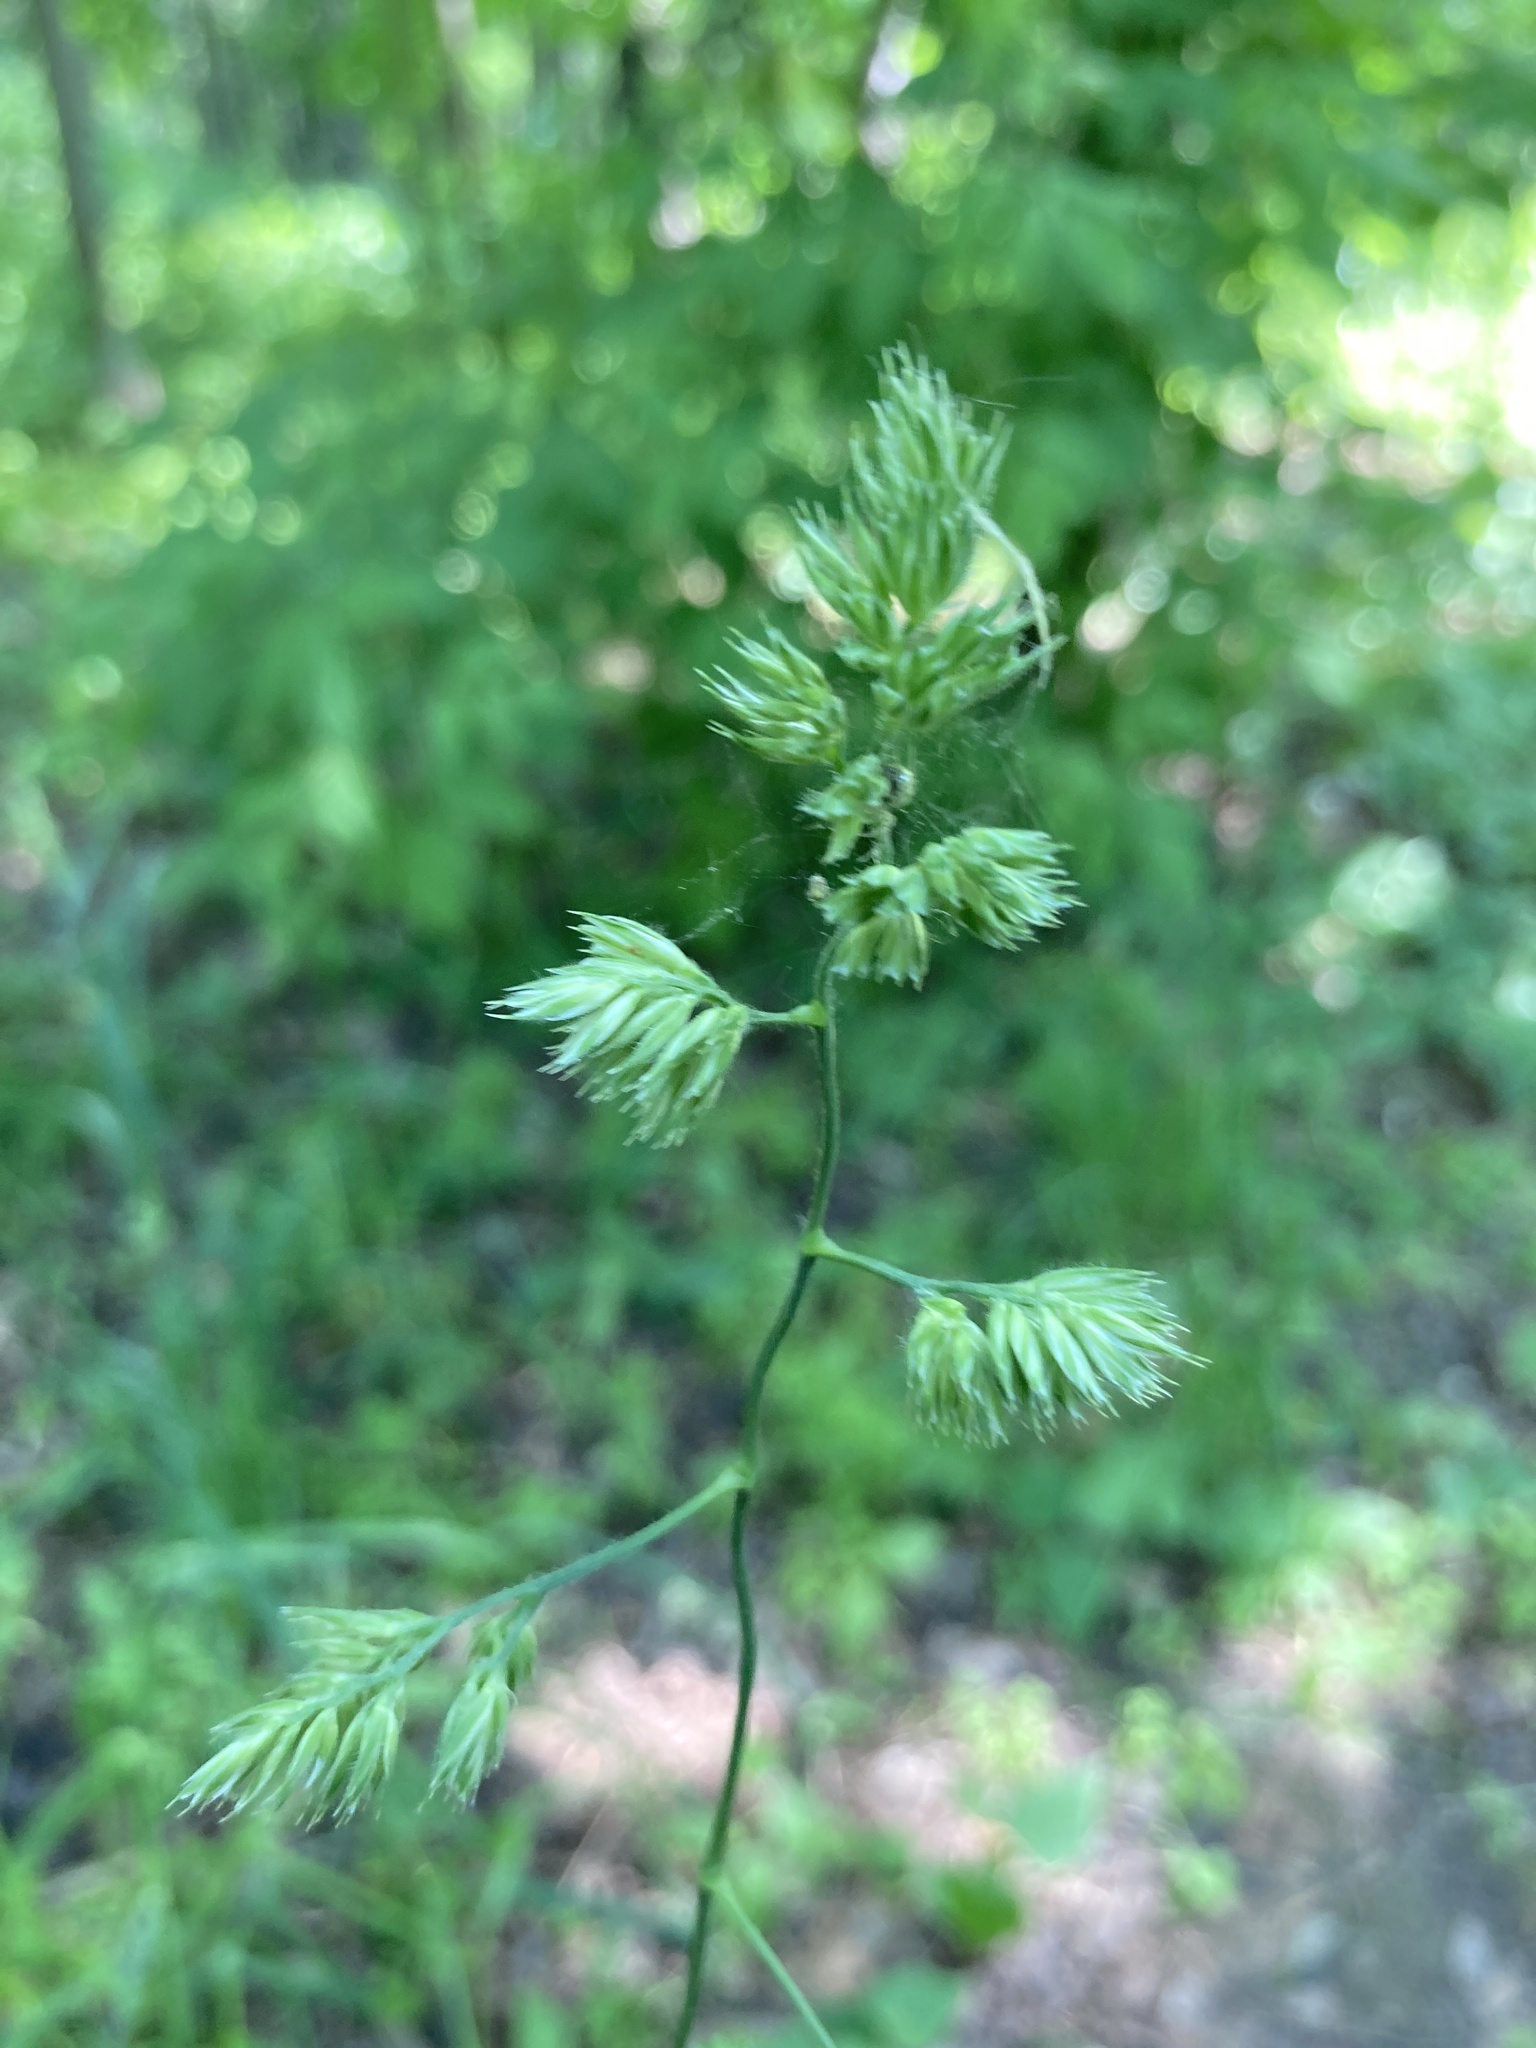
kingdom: Plantae
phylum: Tracheophyta
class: Liliopsida
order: Poales
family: Poaceae
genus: Dactylis
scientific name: Dactylis glomerata
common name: Orchardgrass
